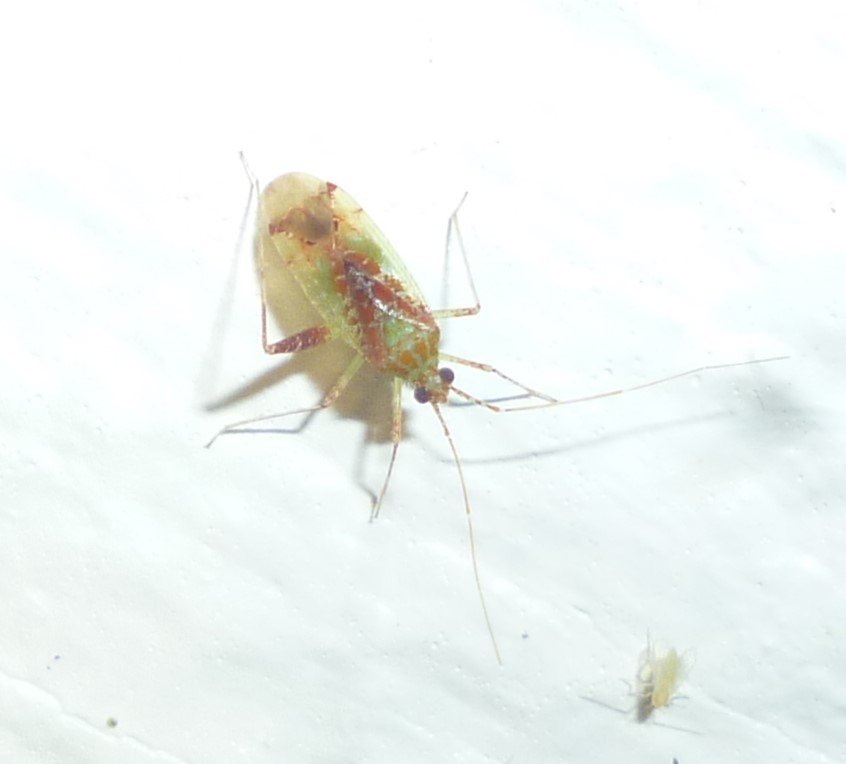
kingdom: Animalia
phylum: Arthropoda
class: Insecta
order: Hemiptera
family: Miridae
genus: Phytocoris
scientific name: Phytocoris tibialis
